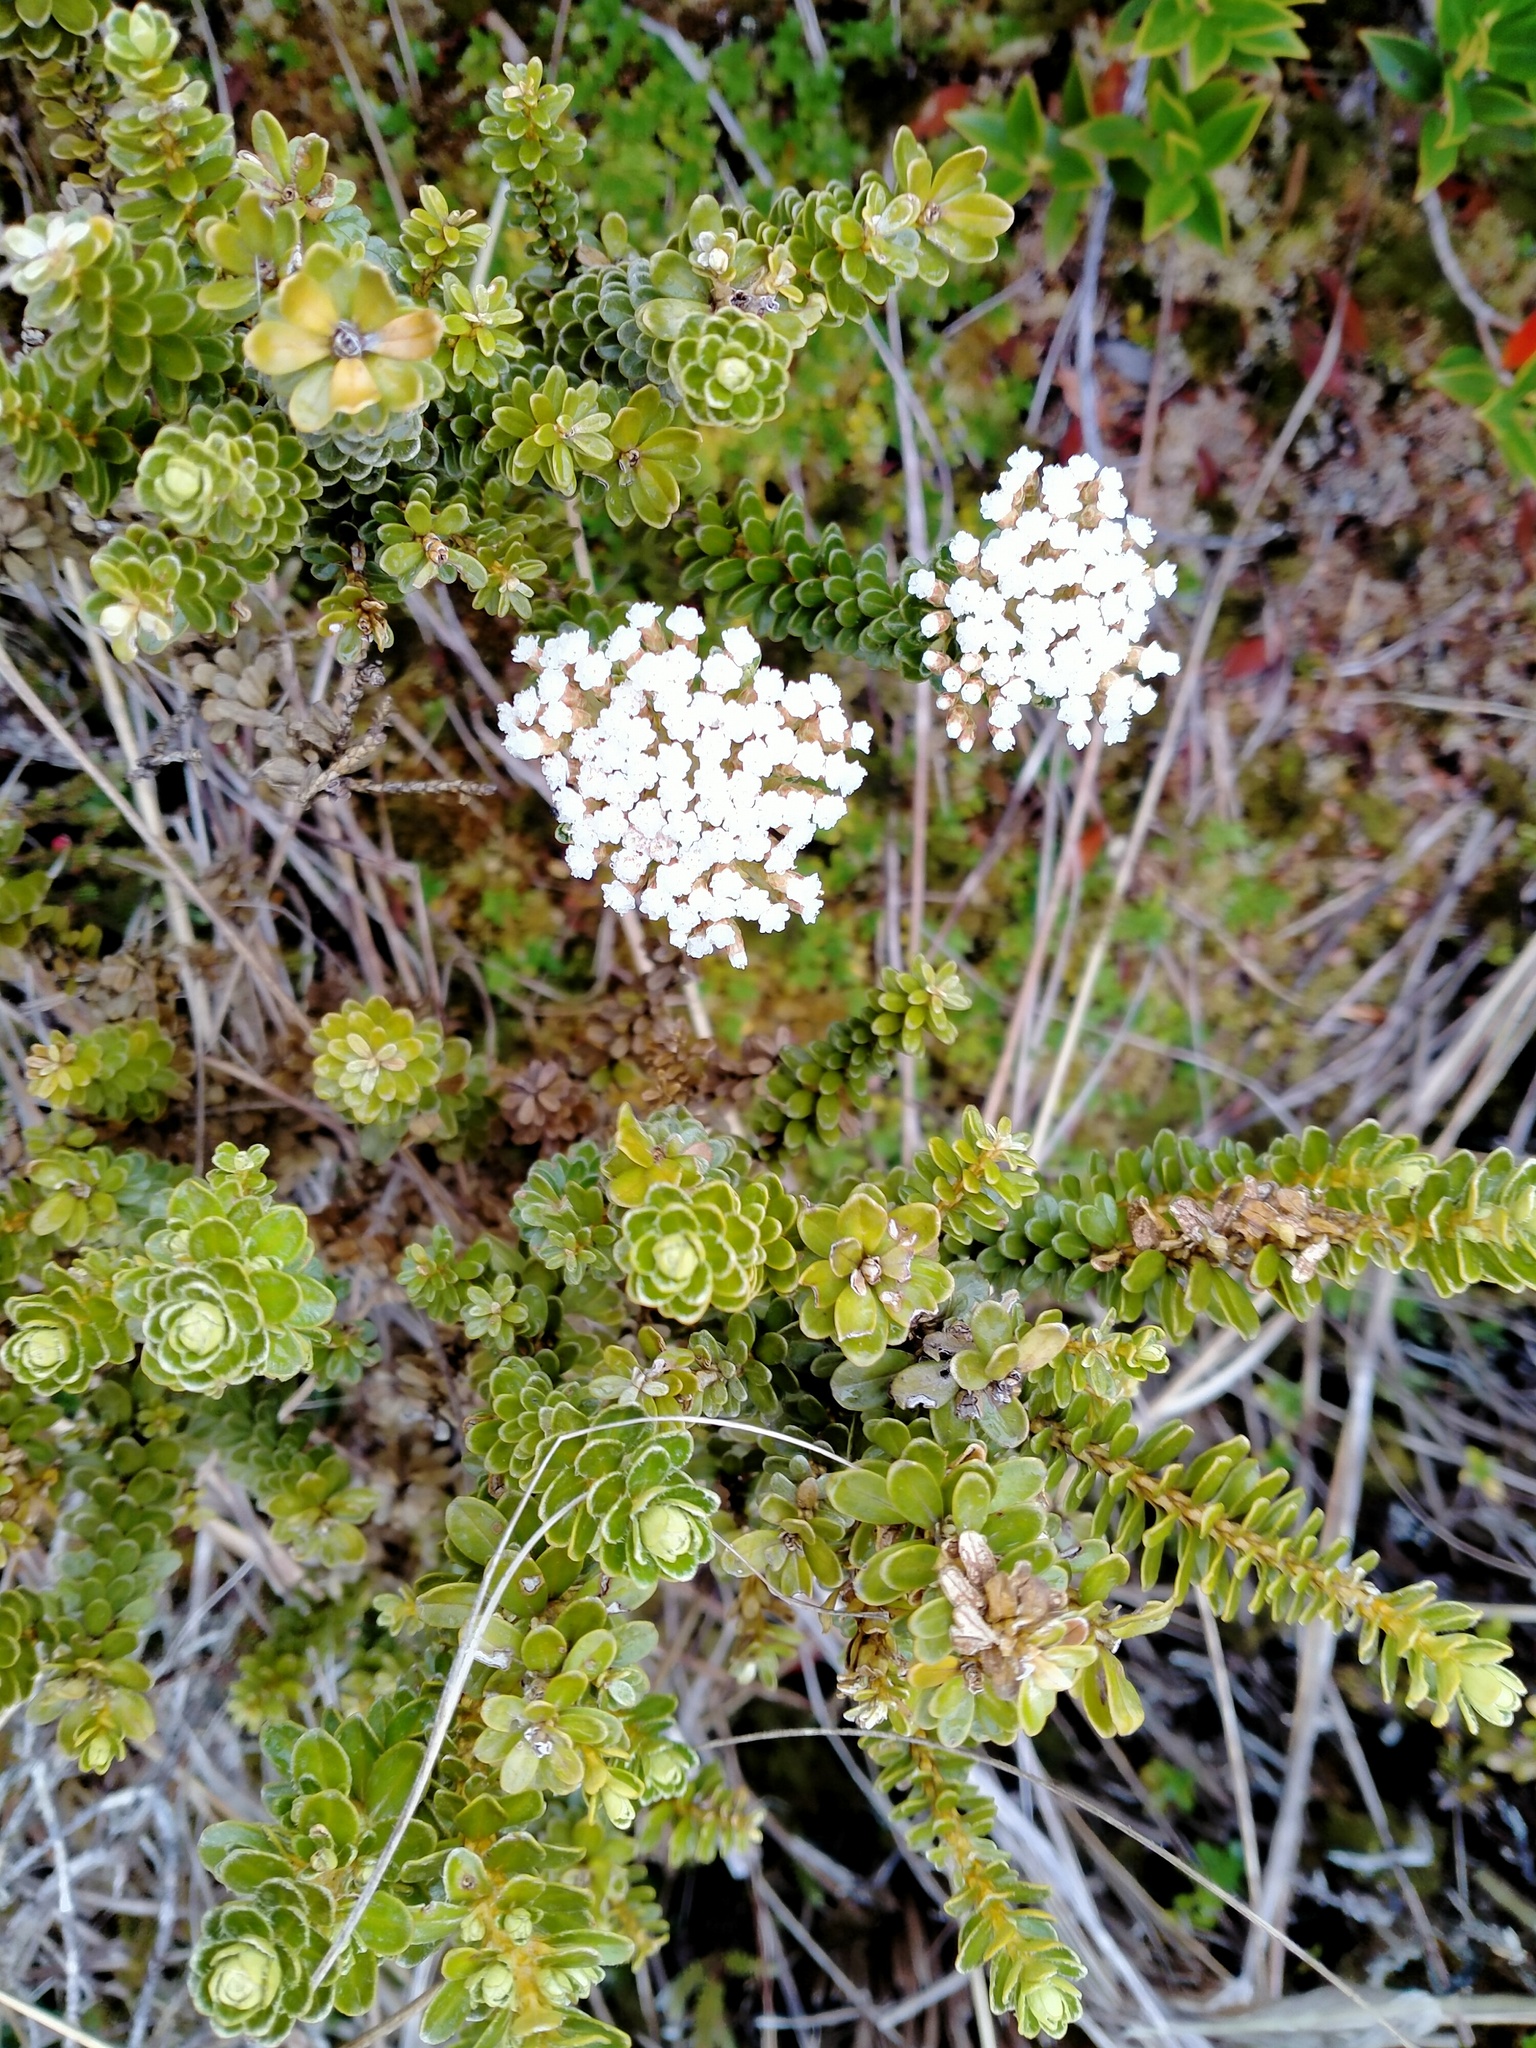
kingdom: Plantae
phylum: Tracheophyta
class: Magnoliopsida
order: Asterales
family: Asteraceae
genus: Ozothamnus
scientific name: Ozothamnus leptophyllus
